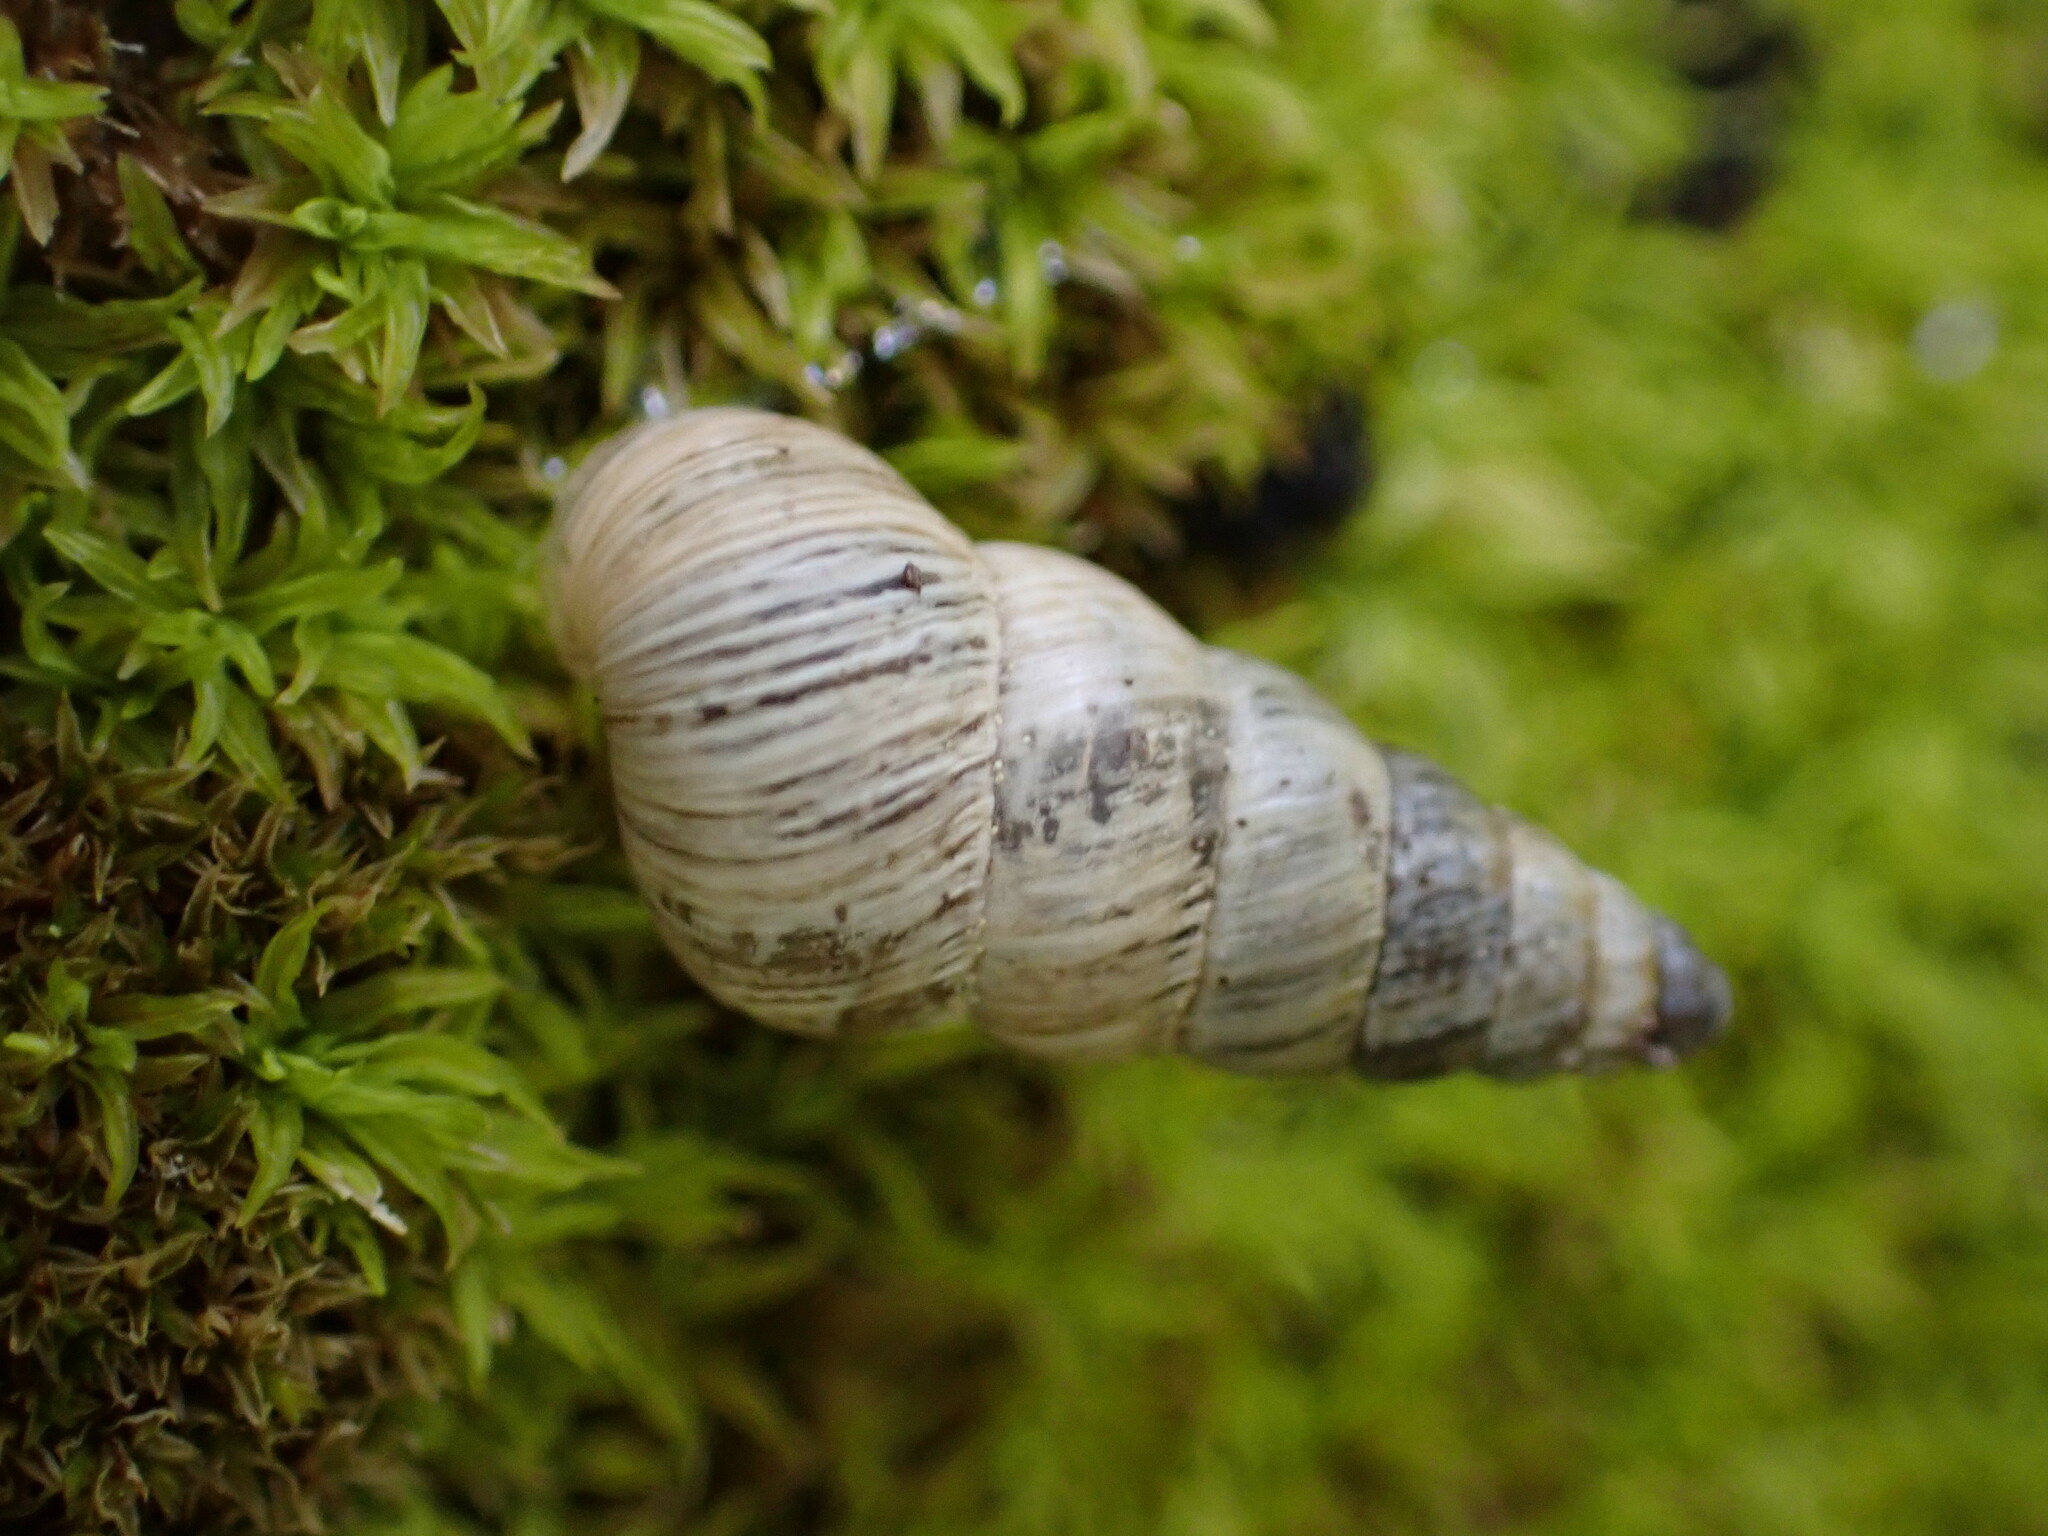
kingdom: Animalia
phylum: Mollusca
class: Gastropoda
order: Stylommatophora
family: Geomitridae
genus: Cochlicella
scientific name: Cochlicella acuta
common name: Pointed snail
